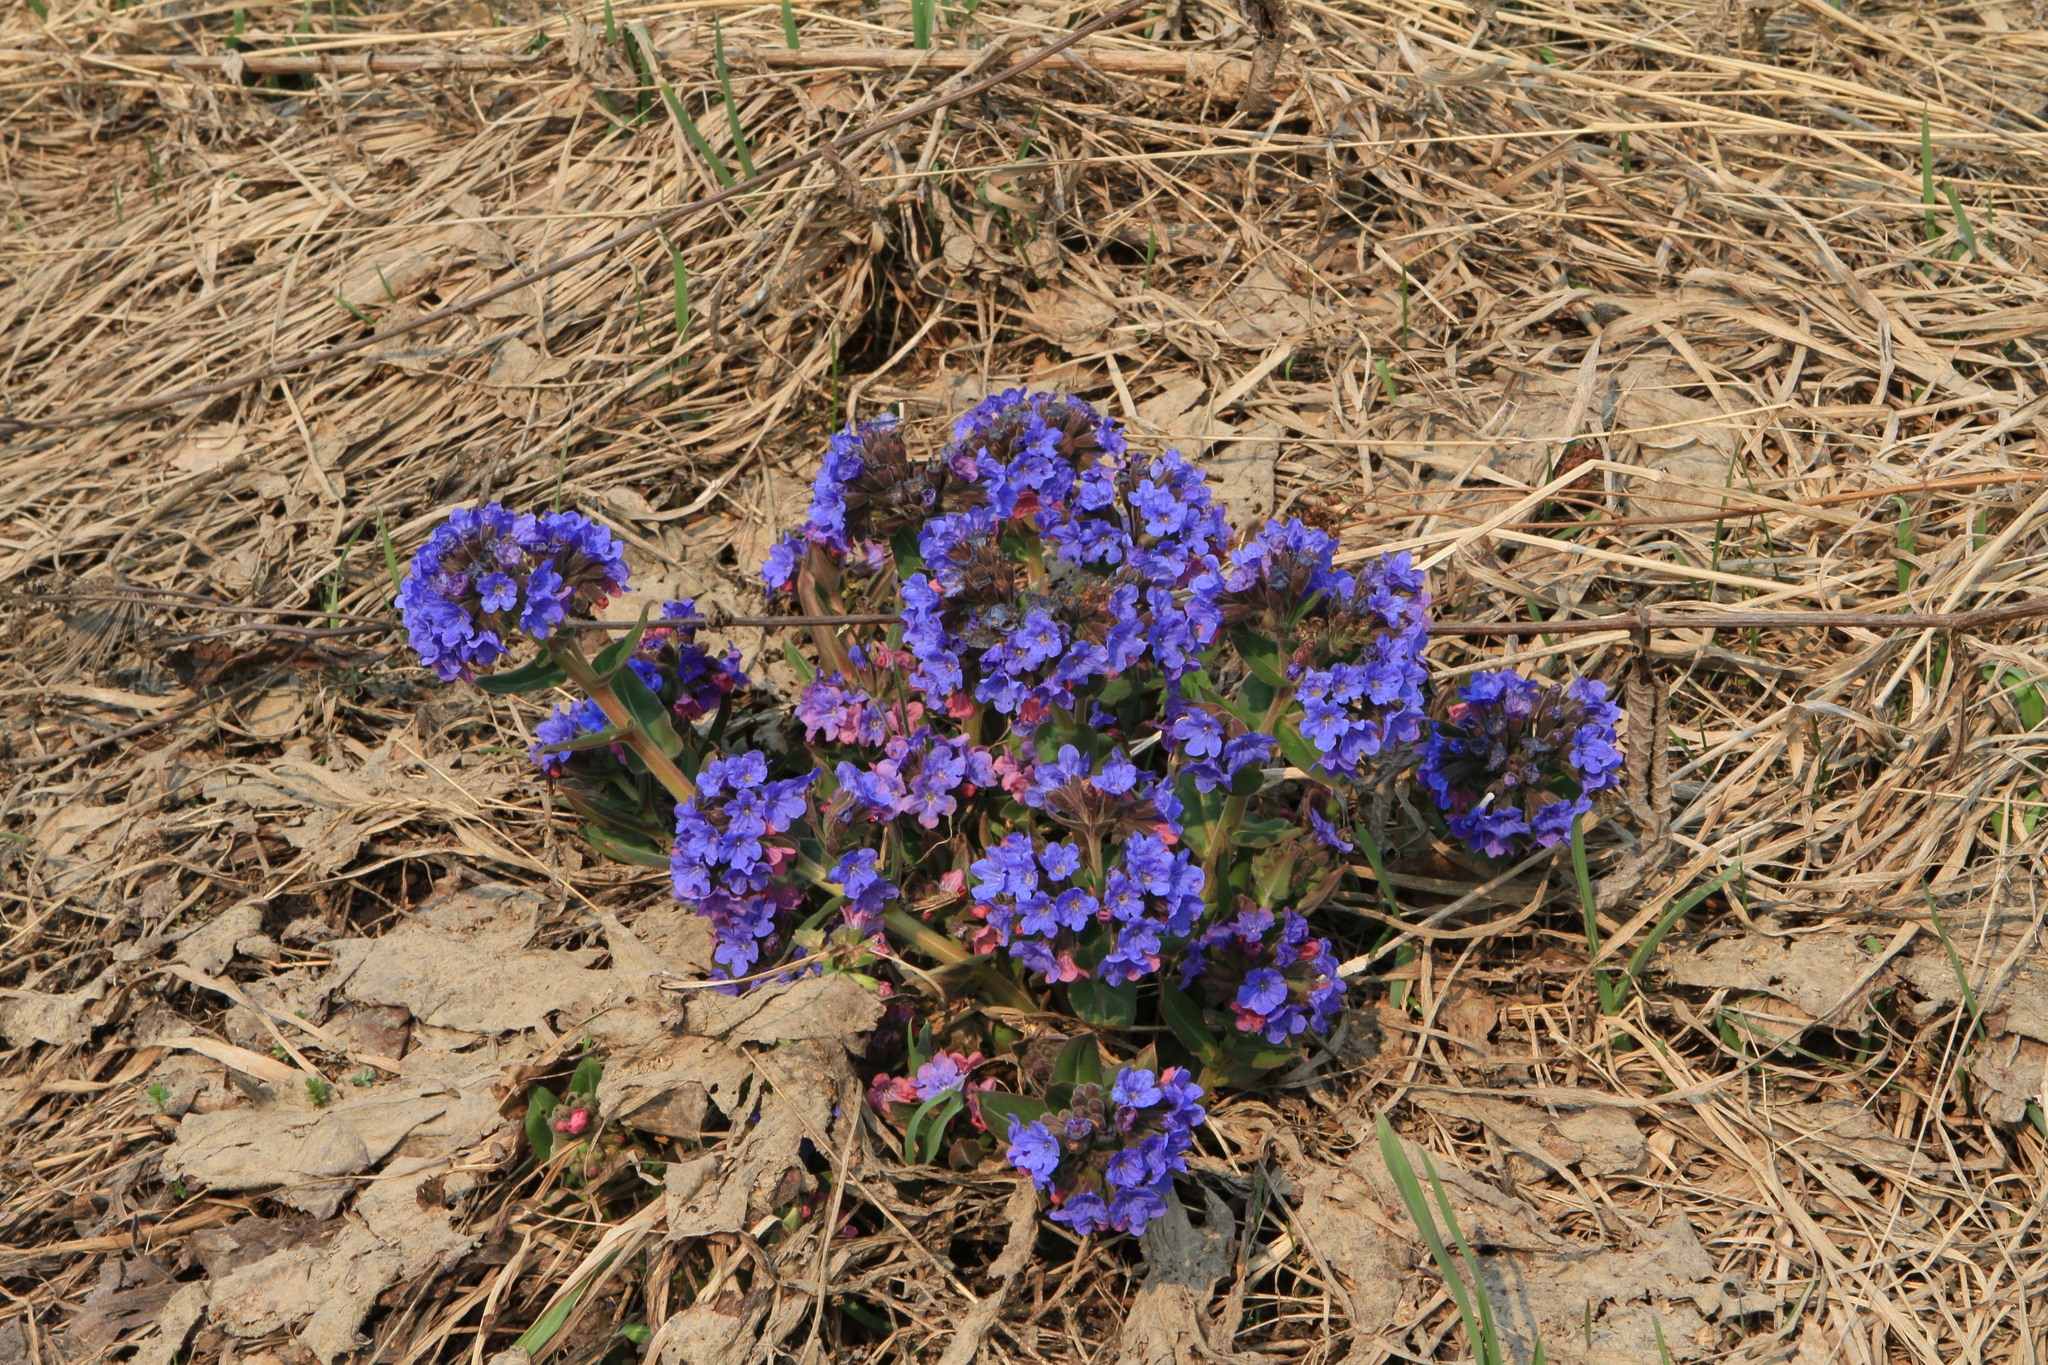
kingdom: Plantae
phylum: Tracheophyta
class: Magnoliopsida
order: Boraginales
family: Boraginaceae
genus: Pulmonaria
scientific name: Pulmonaria mollis
